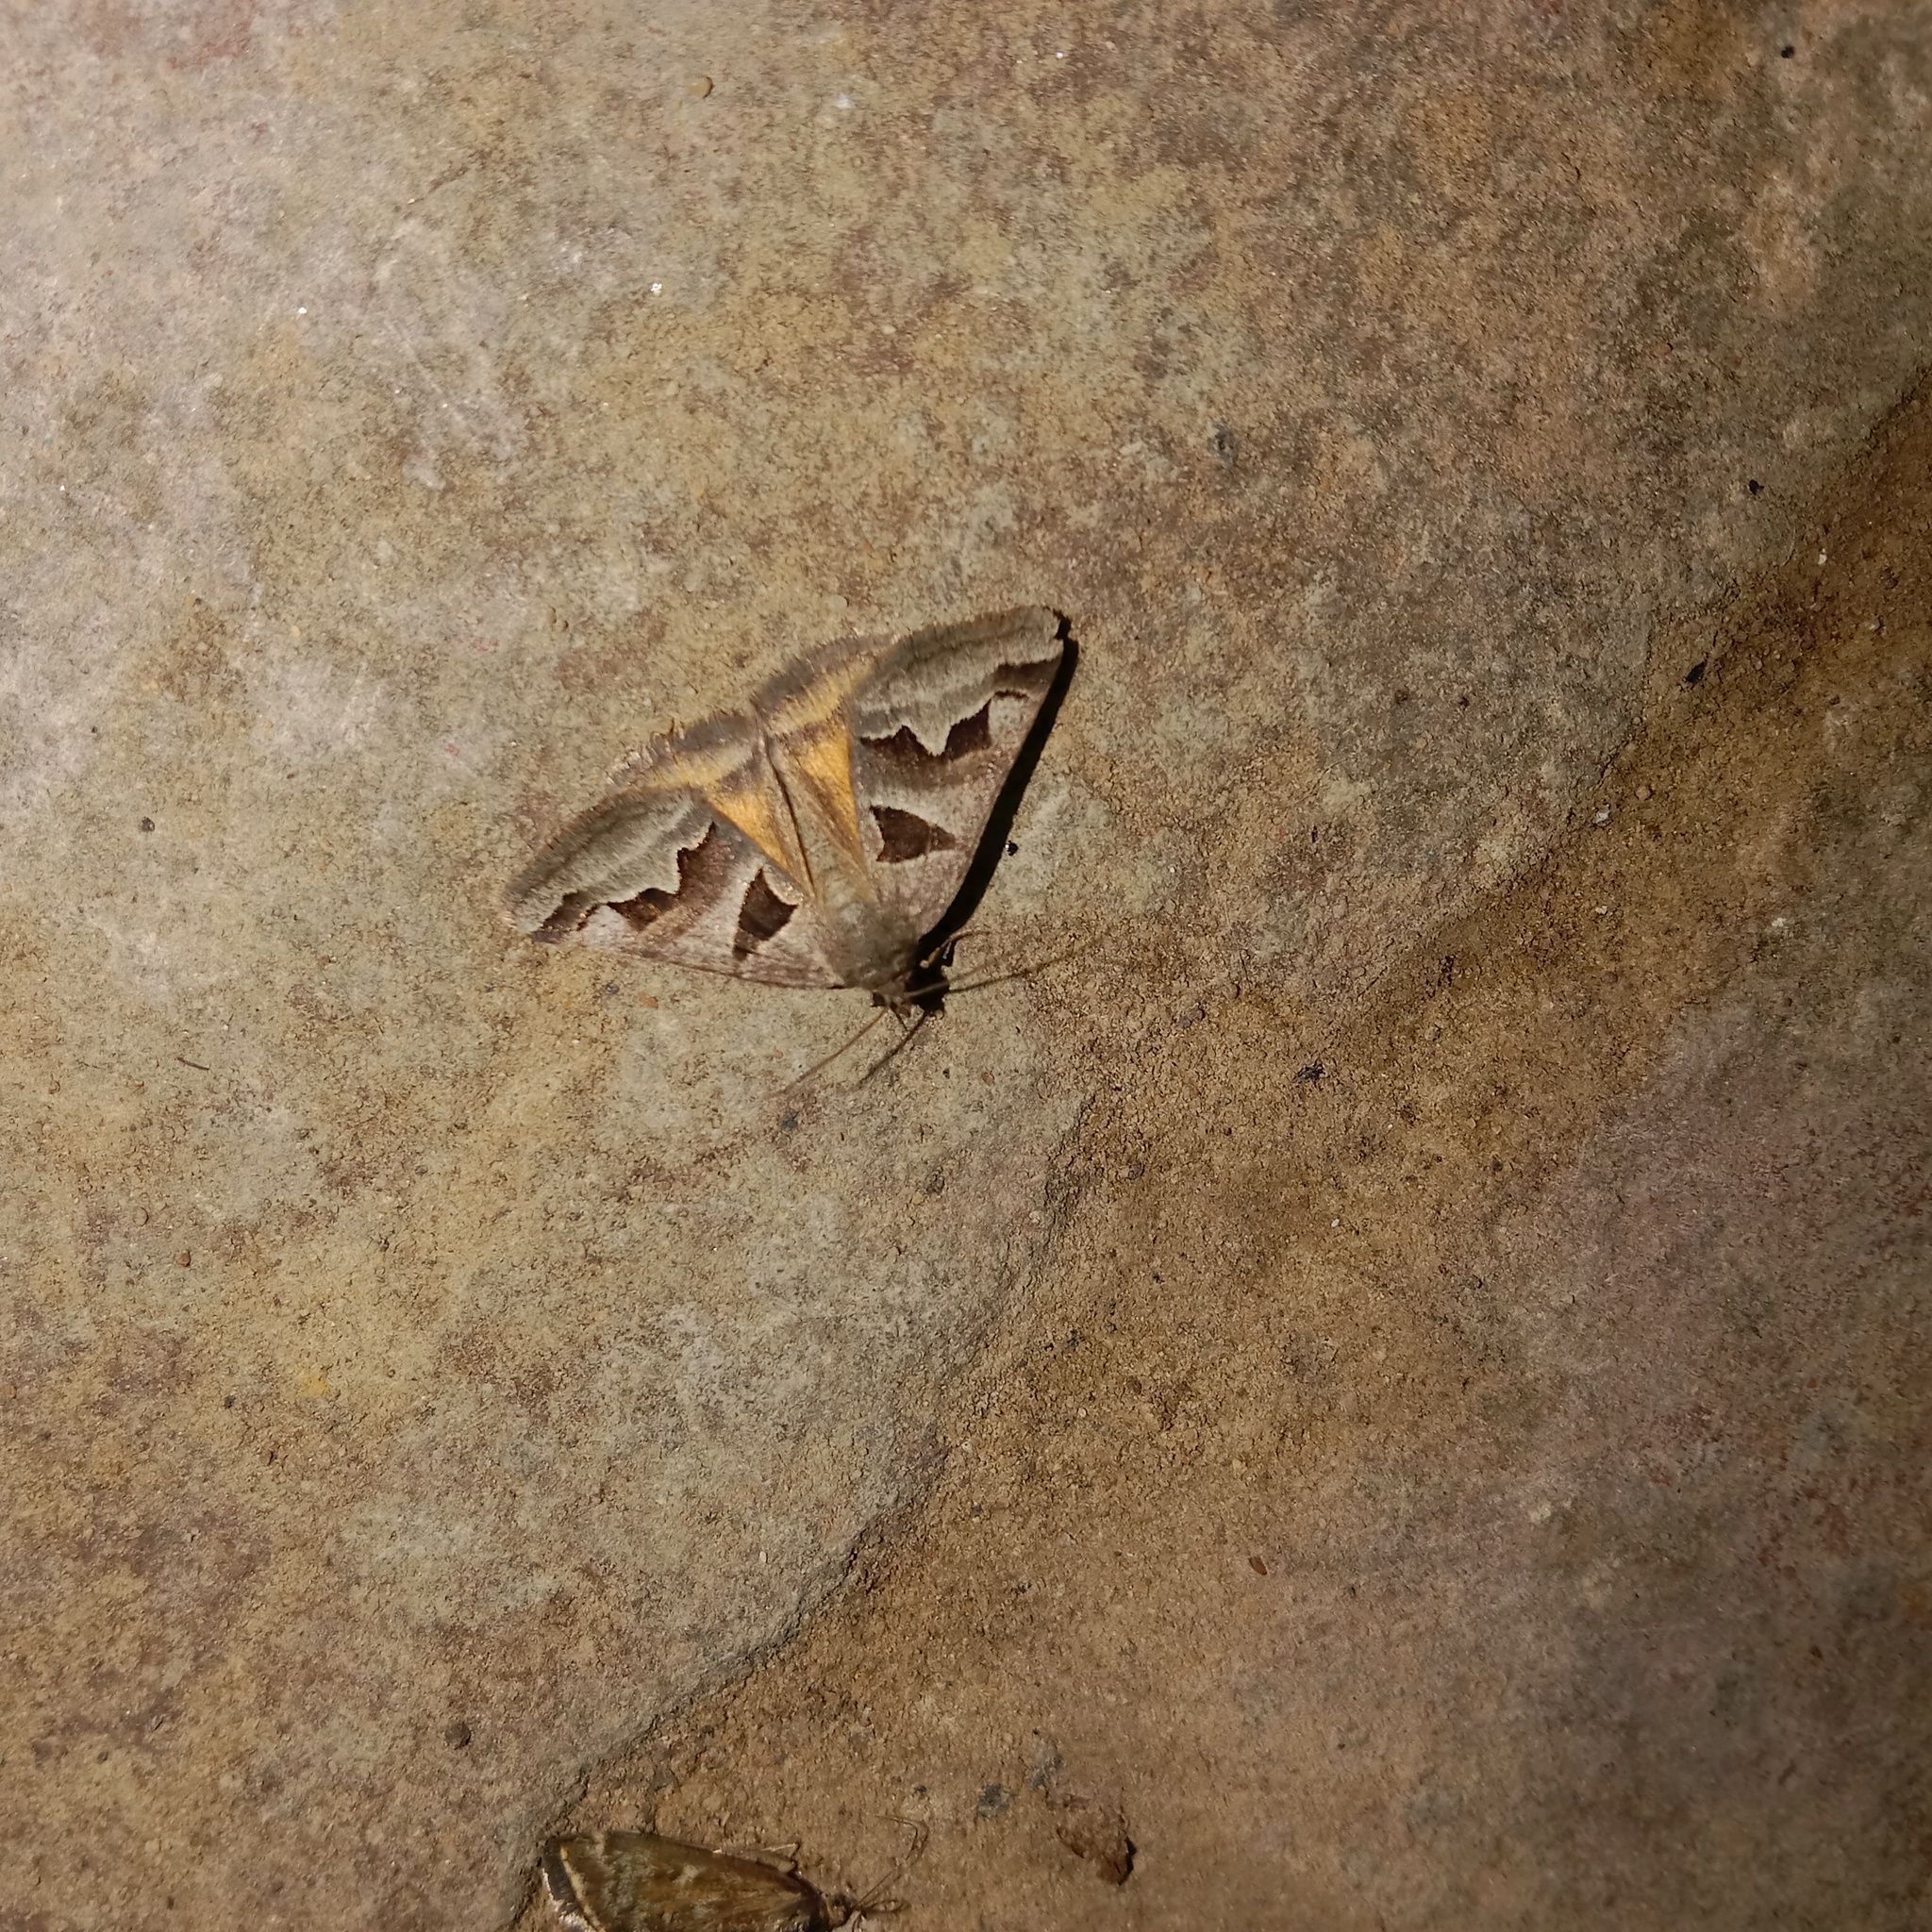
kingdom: Animalia
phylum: Arthropoda
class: Insecta
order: Lepidoptera
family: Erebidae
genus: Euclidia
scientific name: Euclidia triquetra
